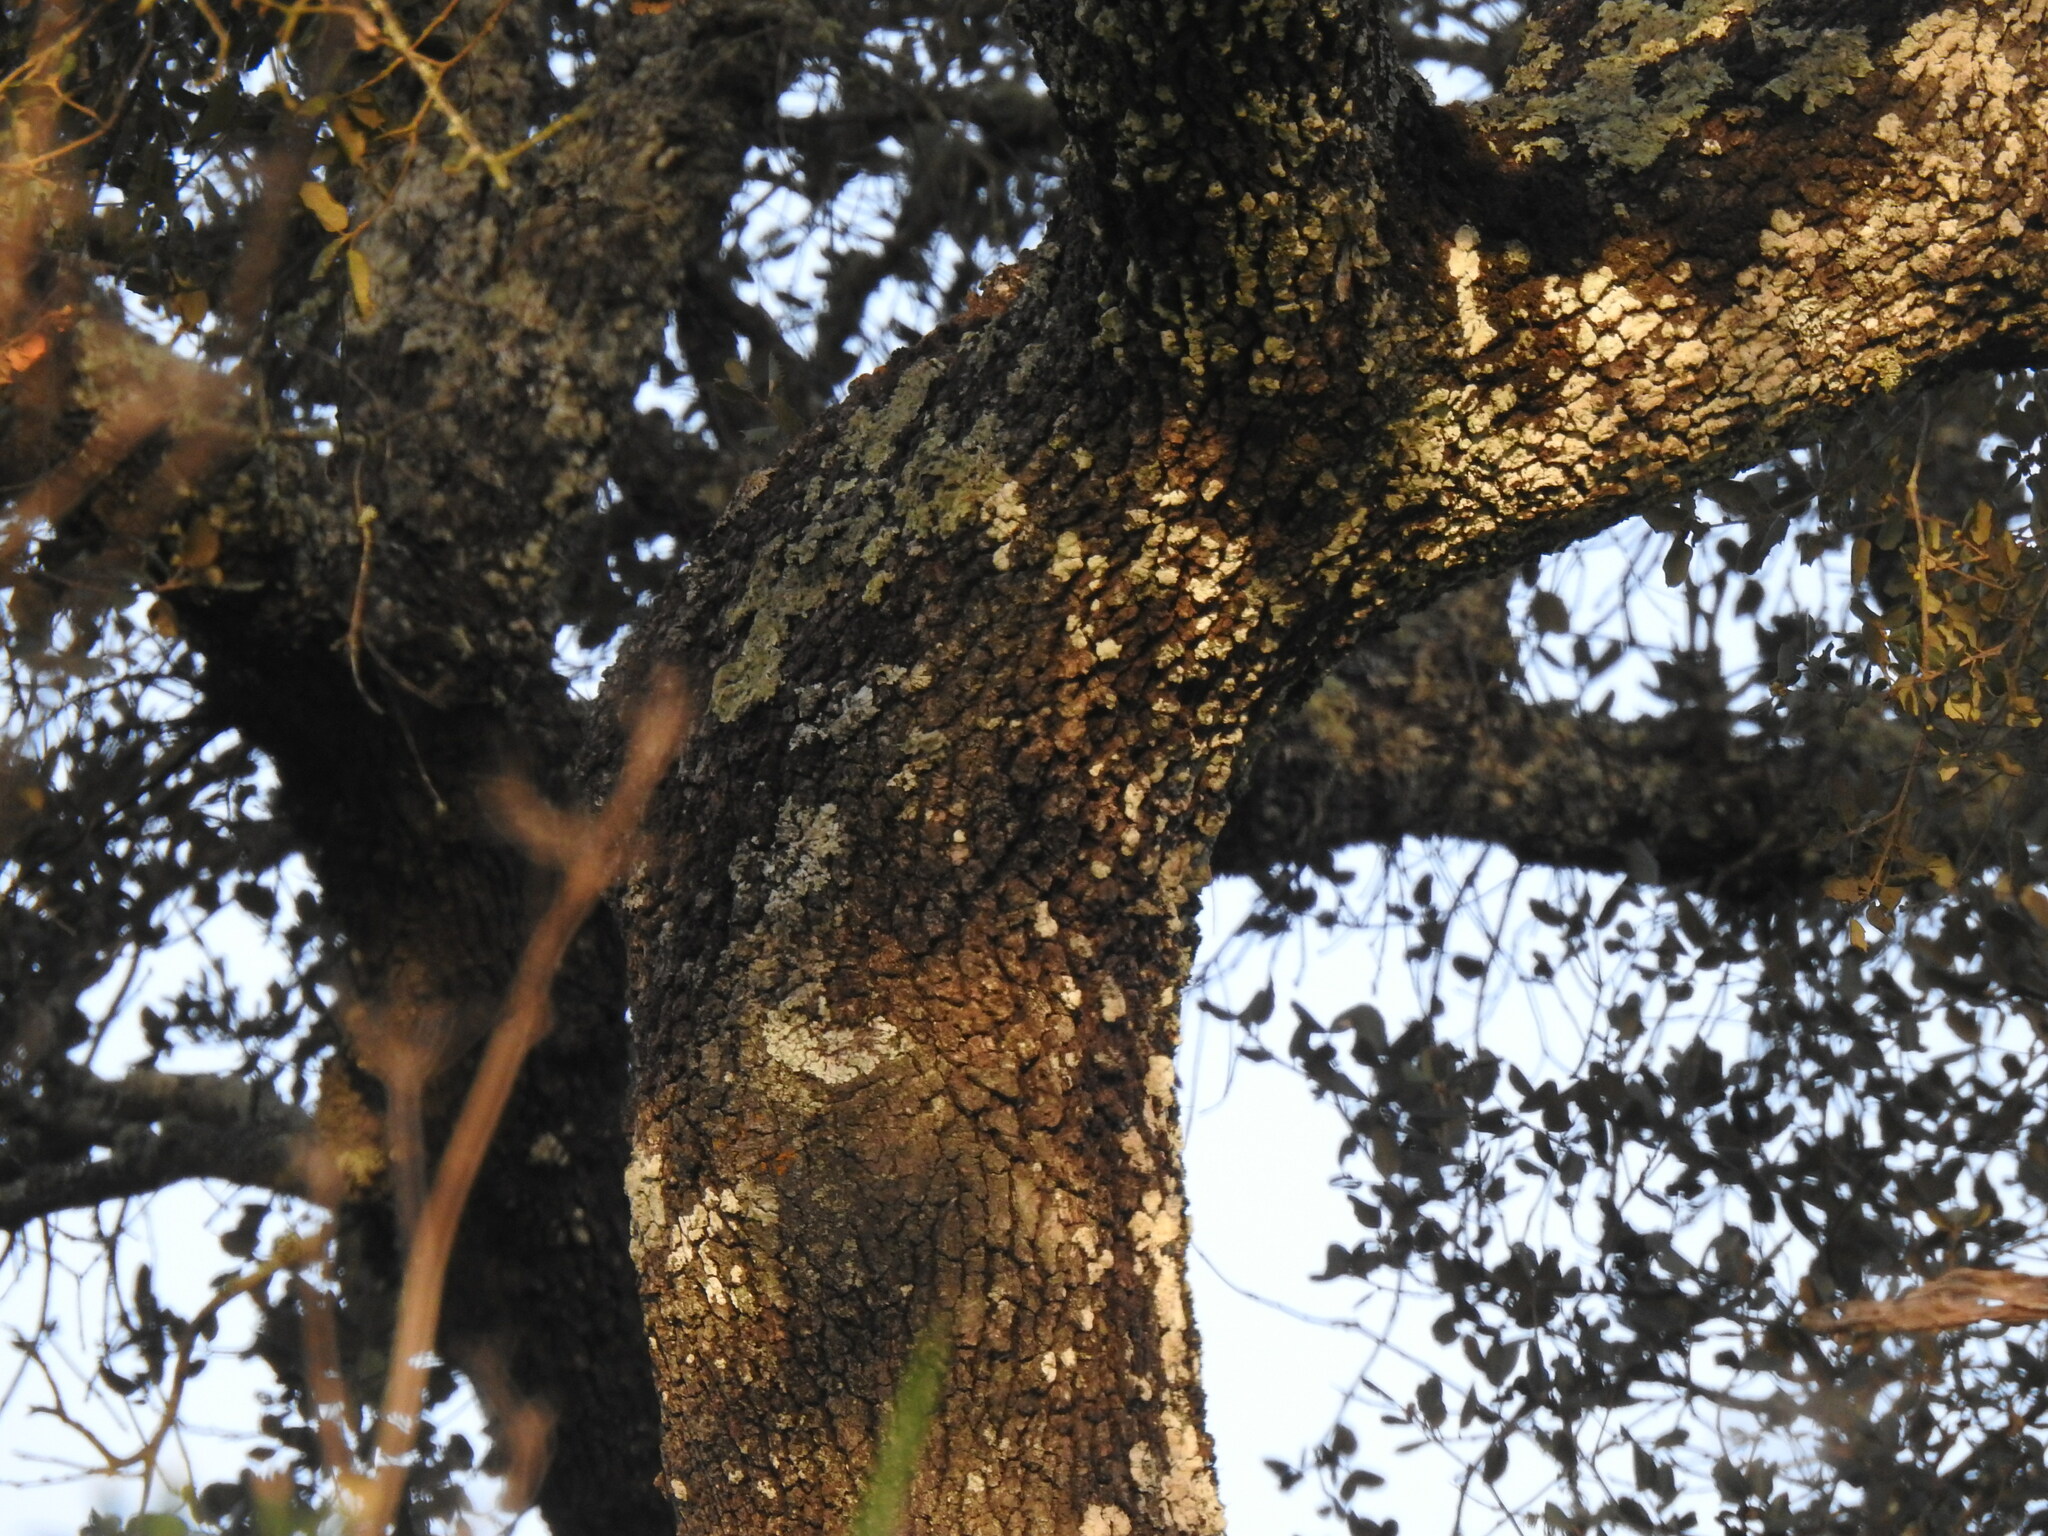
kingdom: Plantae
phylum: Tracheophyta
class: Magnoliopsida
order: Fagales
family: Fagaceae
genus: Quercus
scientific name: Quercus rotundifolia
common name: Holm oak
